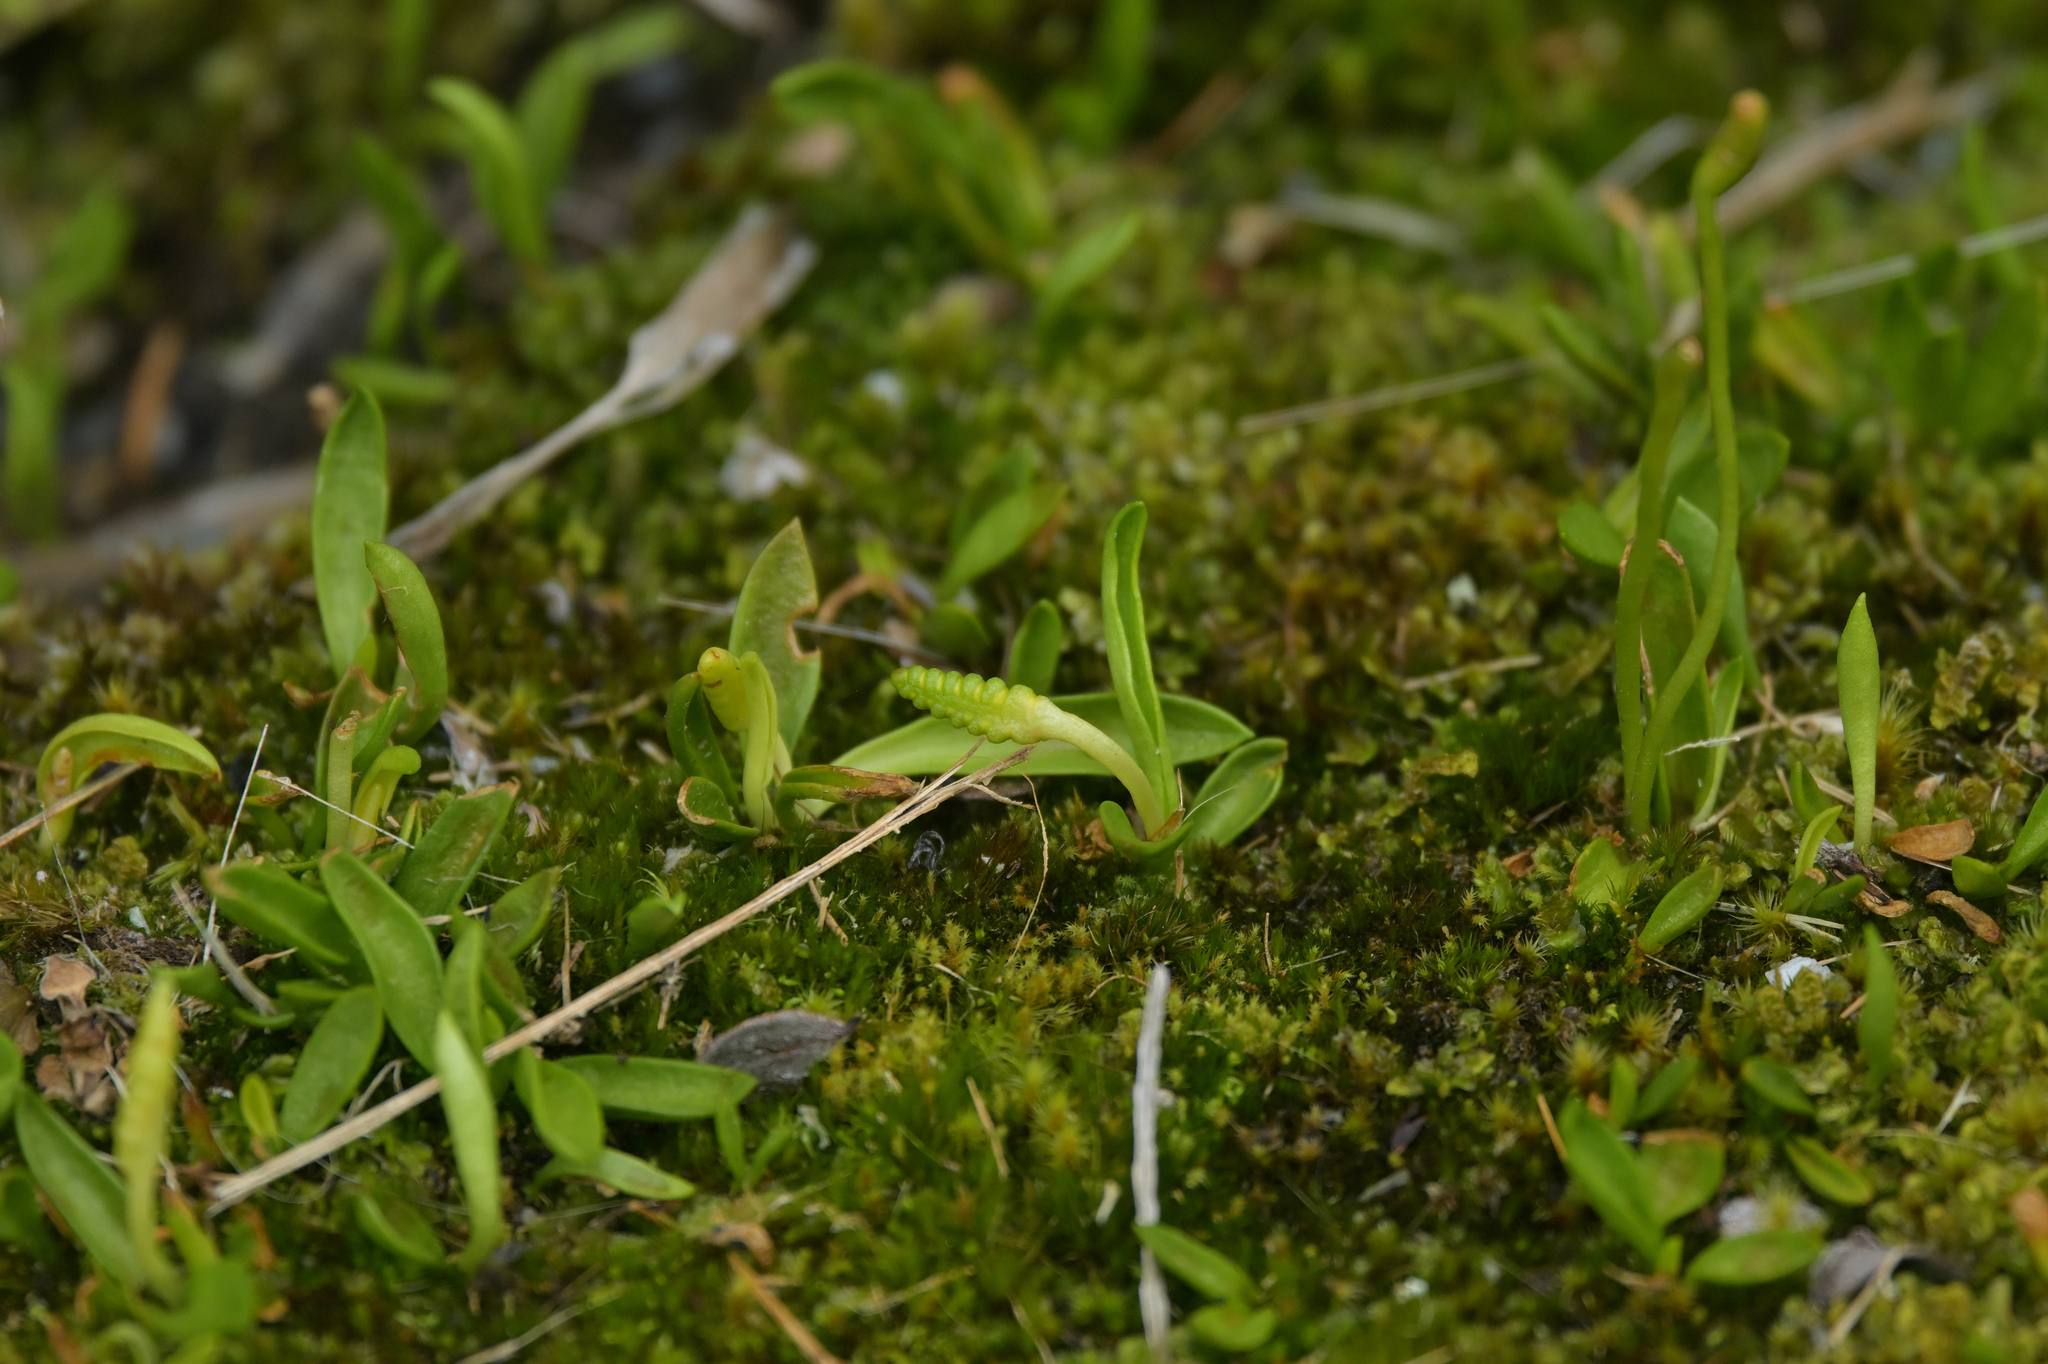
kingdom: Plantae
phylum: Tracheophyta
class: Polypodiopsida
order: Ophioglossales
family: Ophioglossaceae
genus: Ophioglossum
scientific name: Ophioglossum coriaceum
